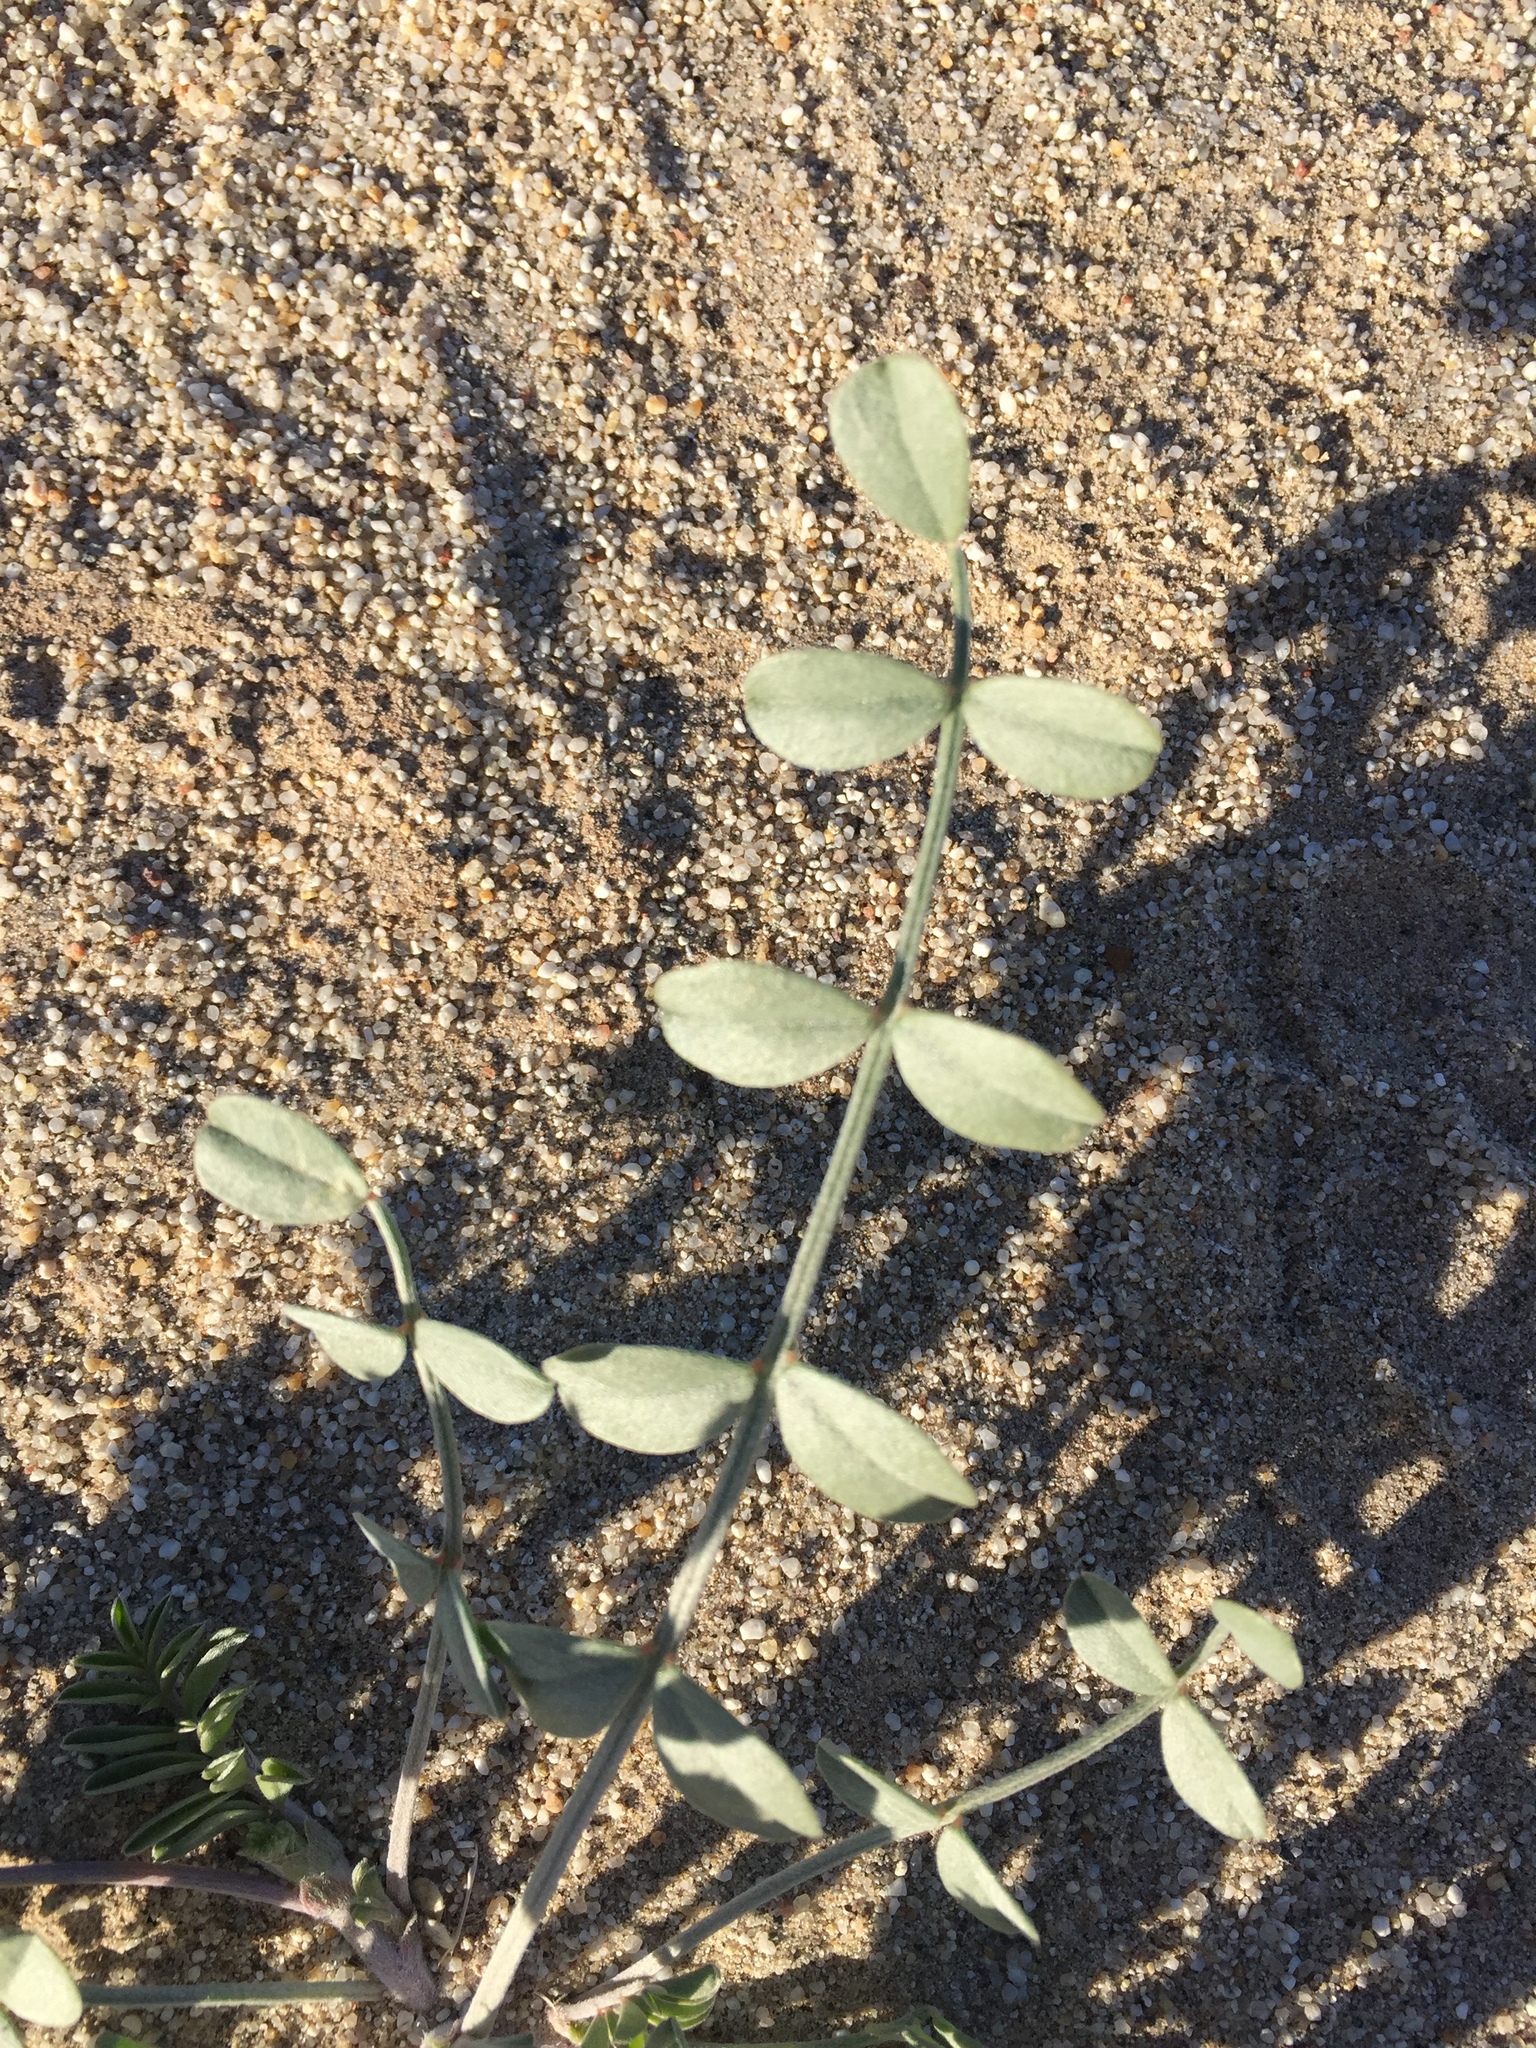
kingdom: Plantae
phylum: Tracheophyta
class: Magnoliopsida
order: Fabales
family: Fabaceae
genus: Astragalus
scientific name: Astragalus lentiginosus
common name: Freckled milkvetch
